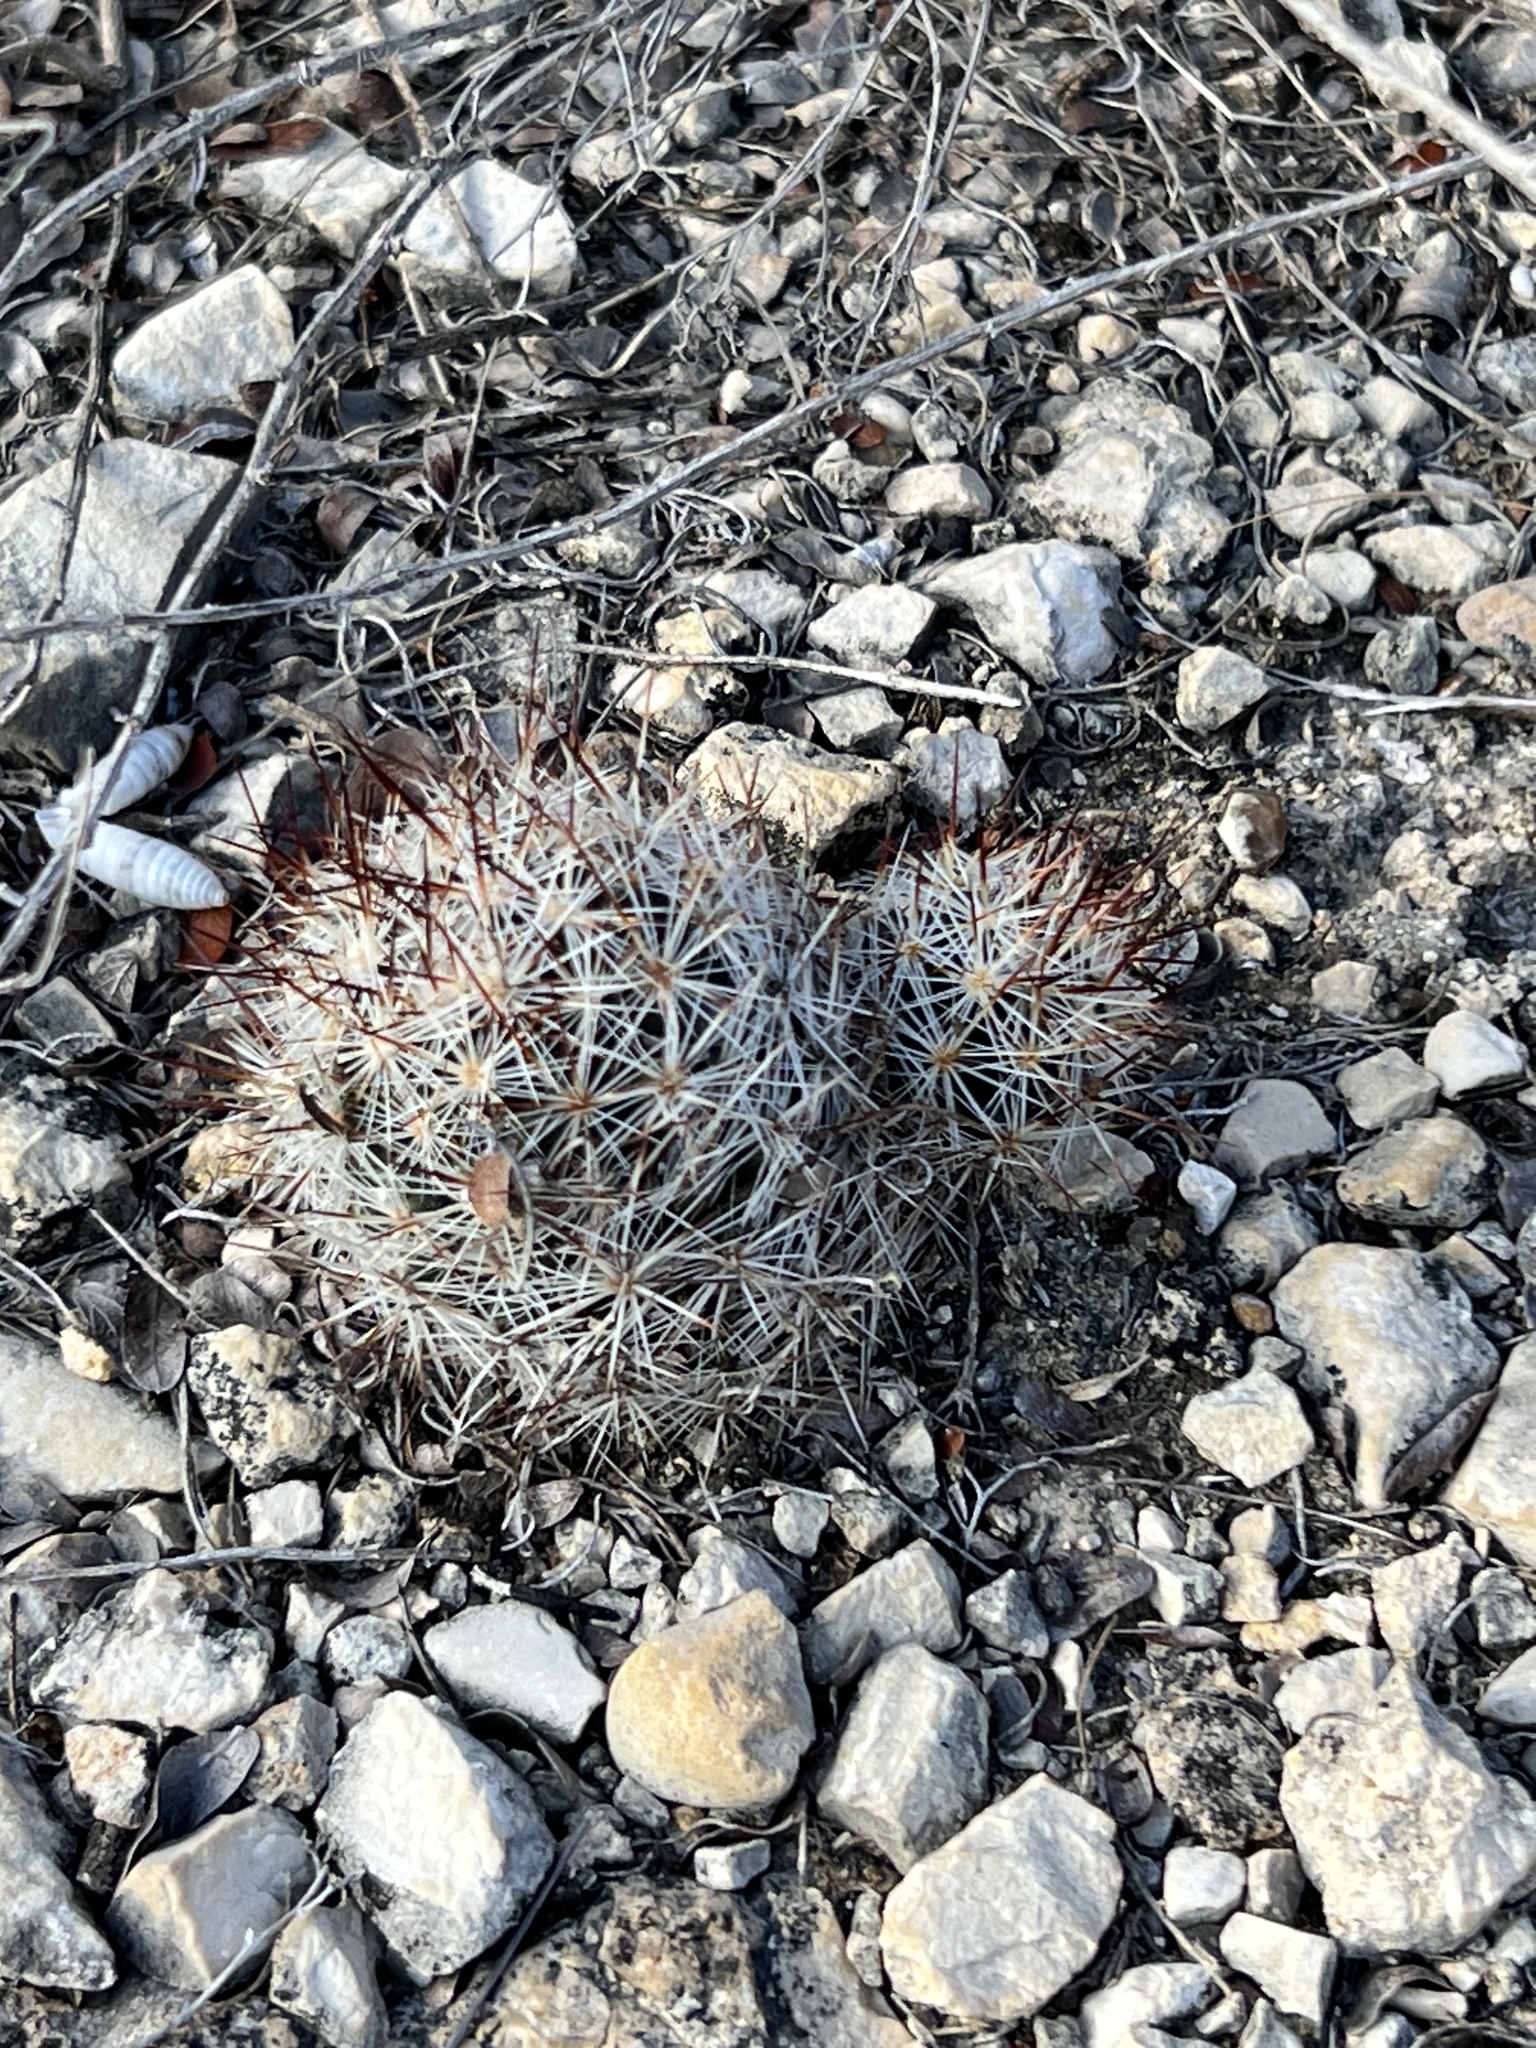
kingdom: Plantae
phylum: Tracheophyta
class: Magnoliopsida
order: Caryophyllales
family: Cactaceae
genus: Pelecyphora
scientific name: Pelecyphora emskoetteriana
